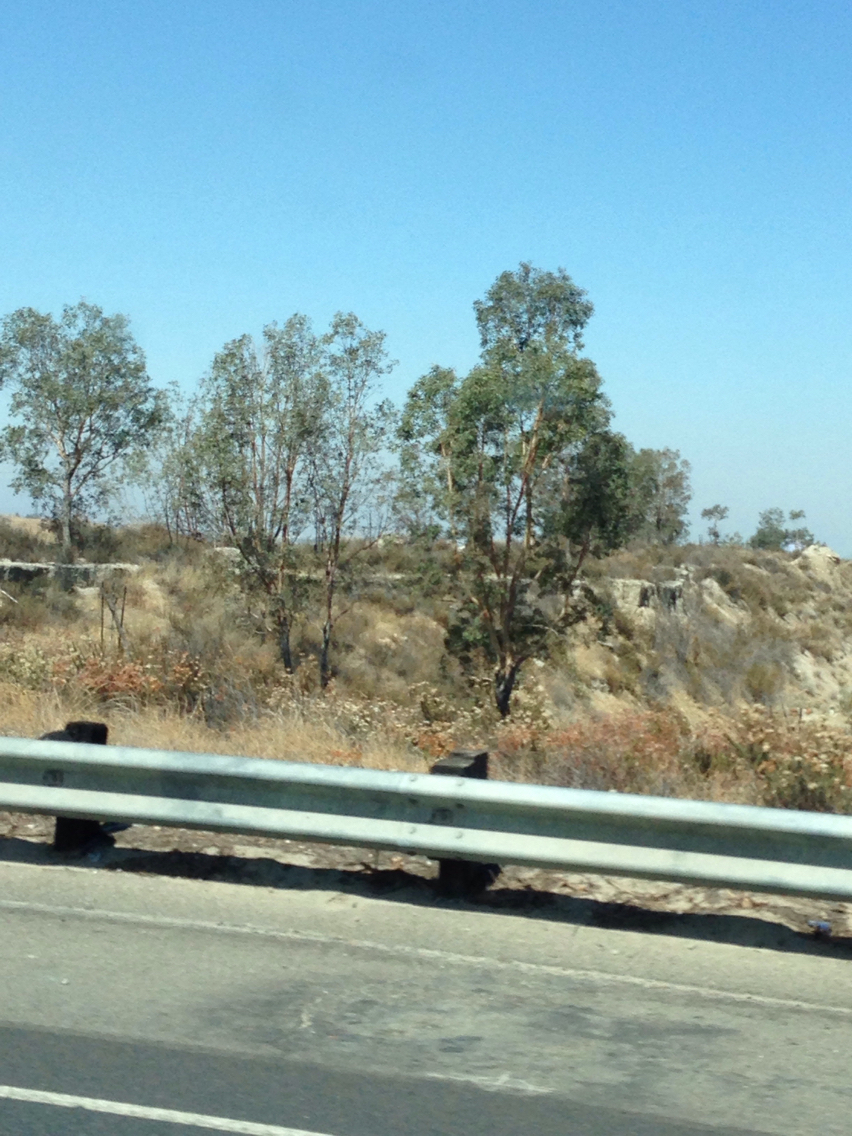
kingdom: Plantae
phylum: Tracheophyta
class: Magnoliopsida
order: Caryophyllales
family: Polygonaceae
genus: Eriogonum
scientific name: Eriogonum fasciculatum
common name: California wild buckwheat
